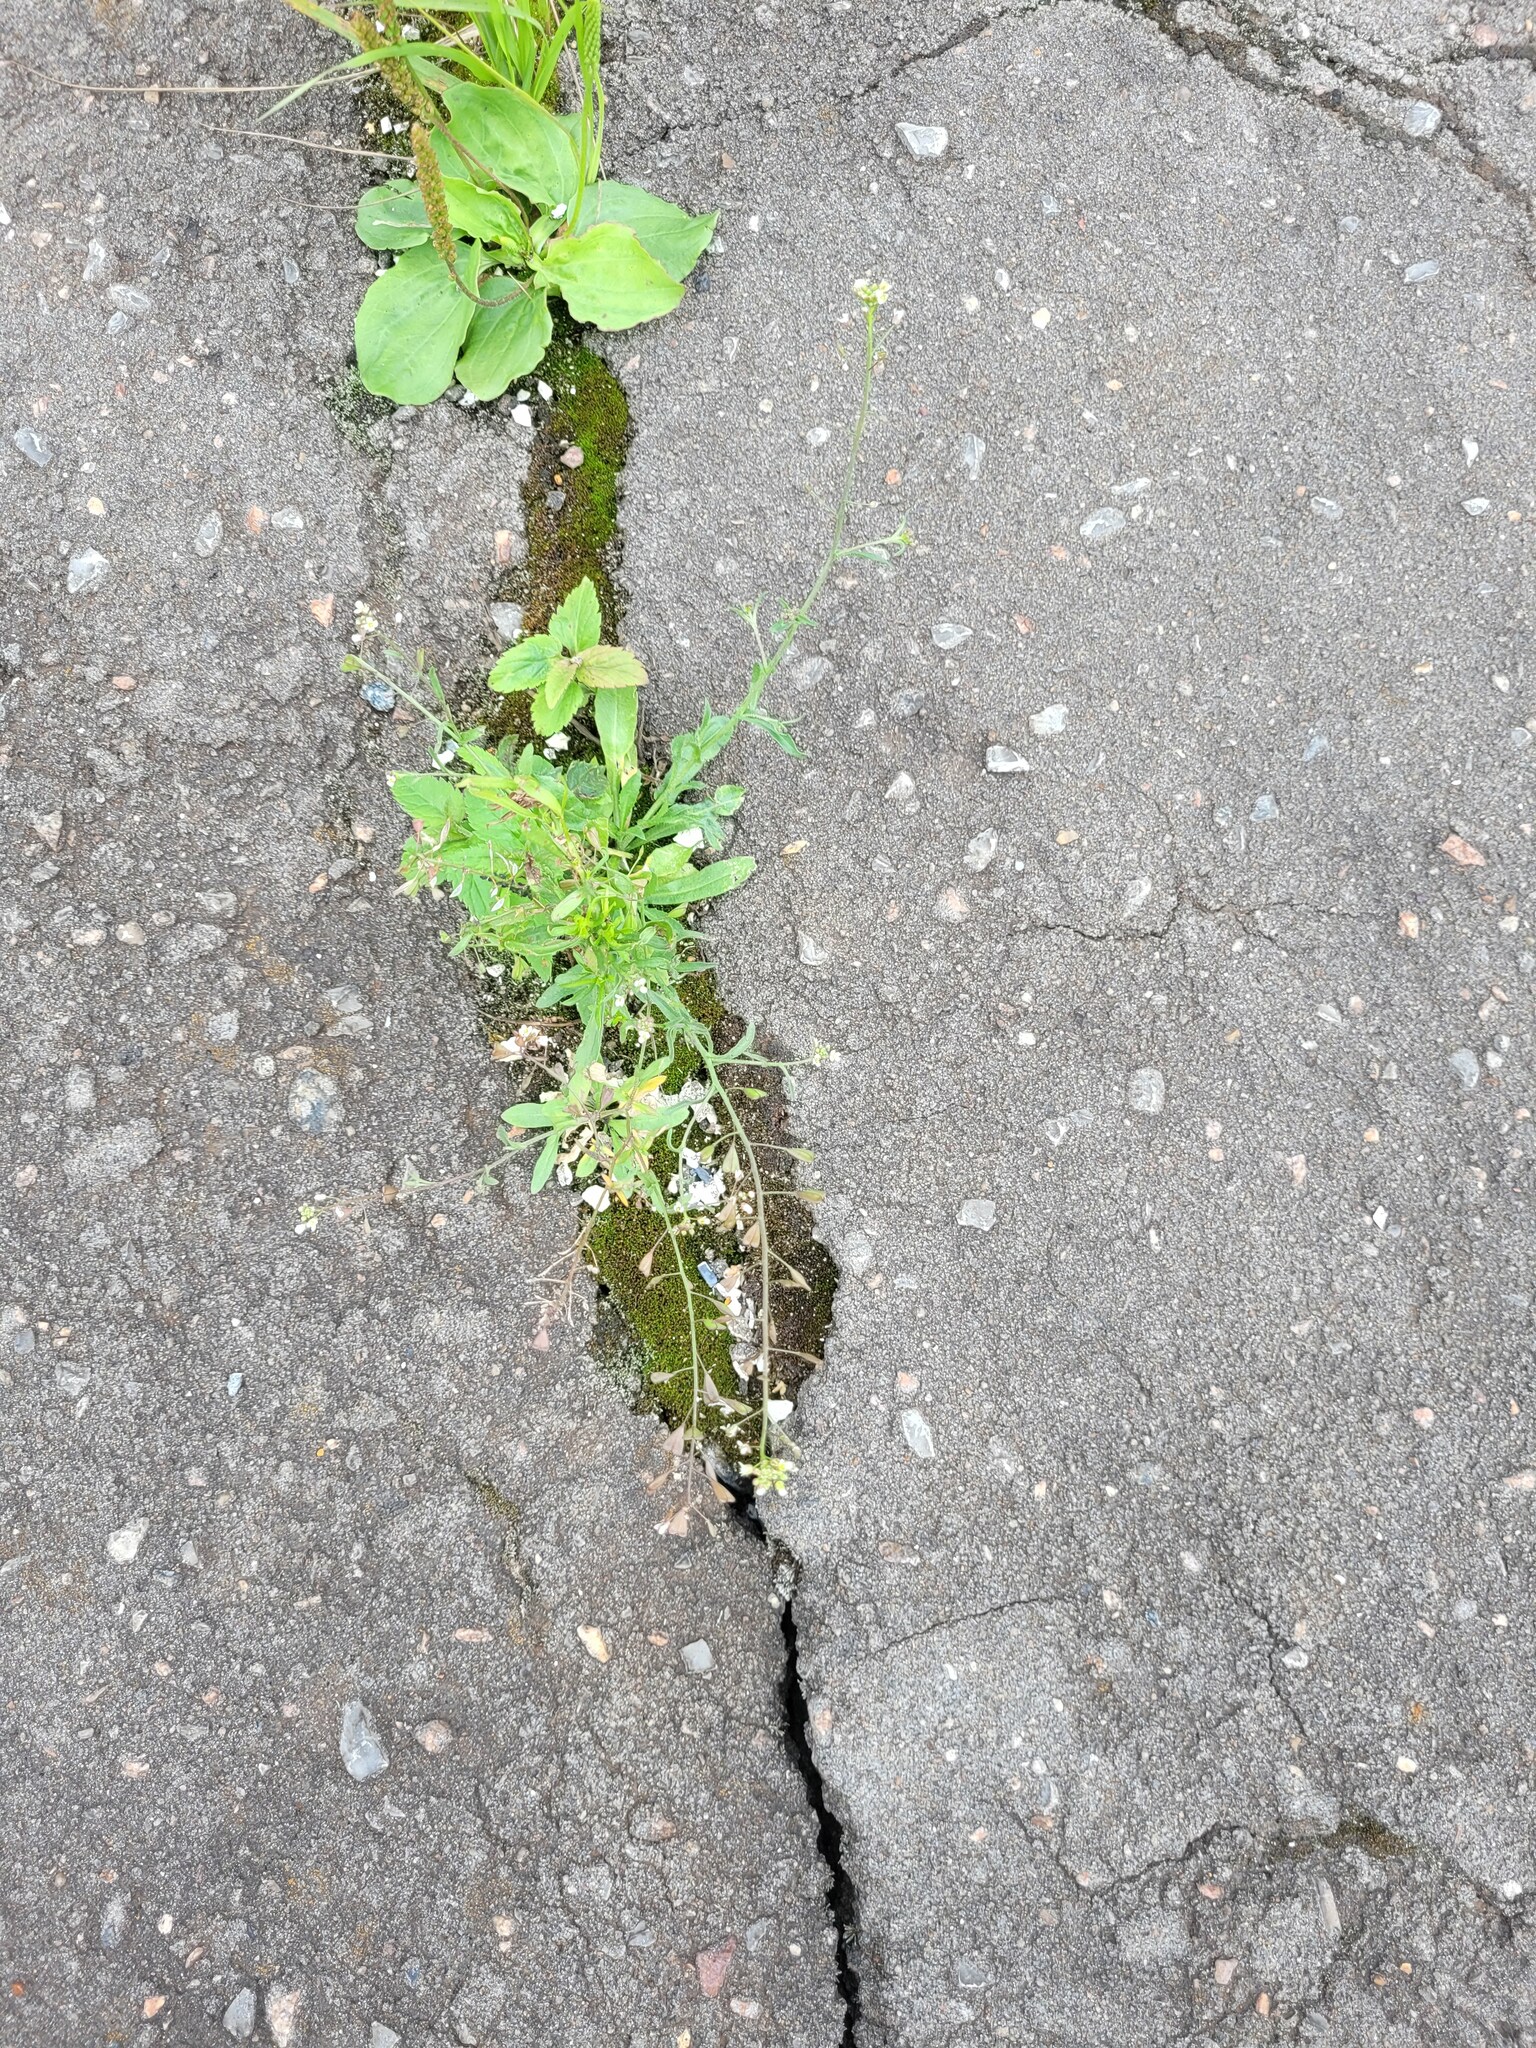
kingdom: Plantae
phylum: Tracheophyta
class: Magnoliopsida
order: Brassicales
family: Brassicaceae
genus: Capsella
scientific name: Capsella bursa-pastoris
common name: Shepherd's purse
